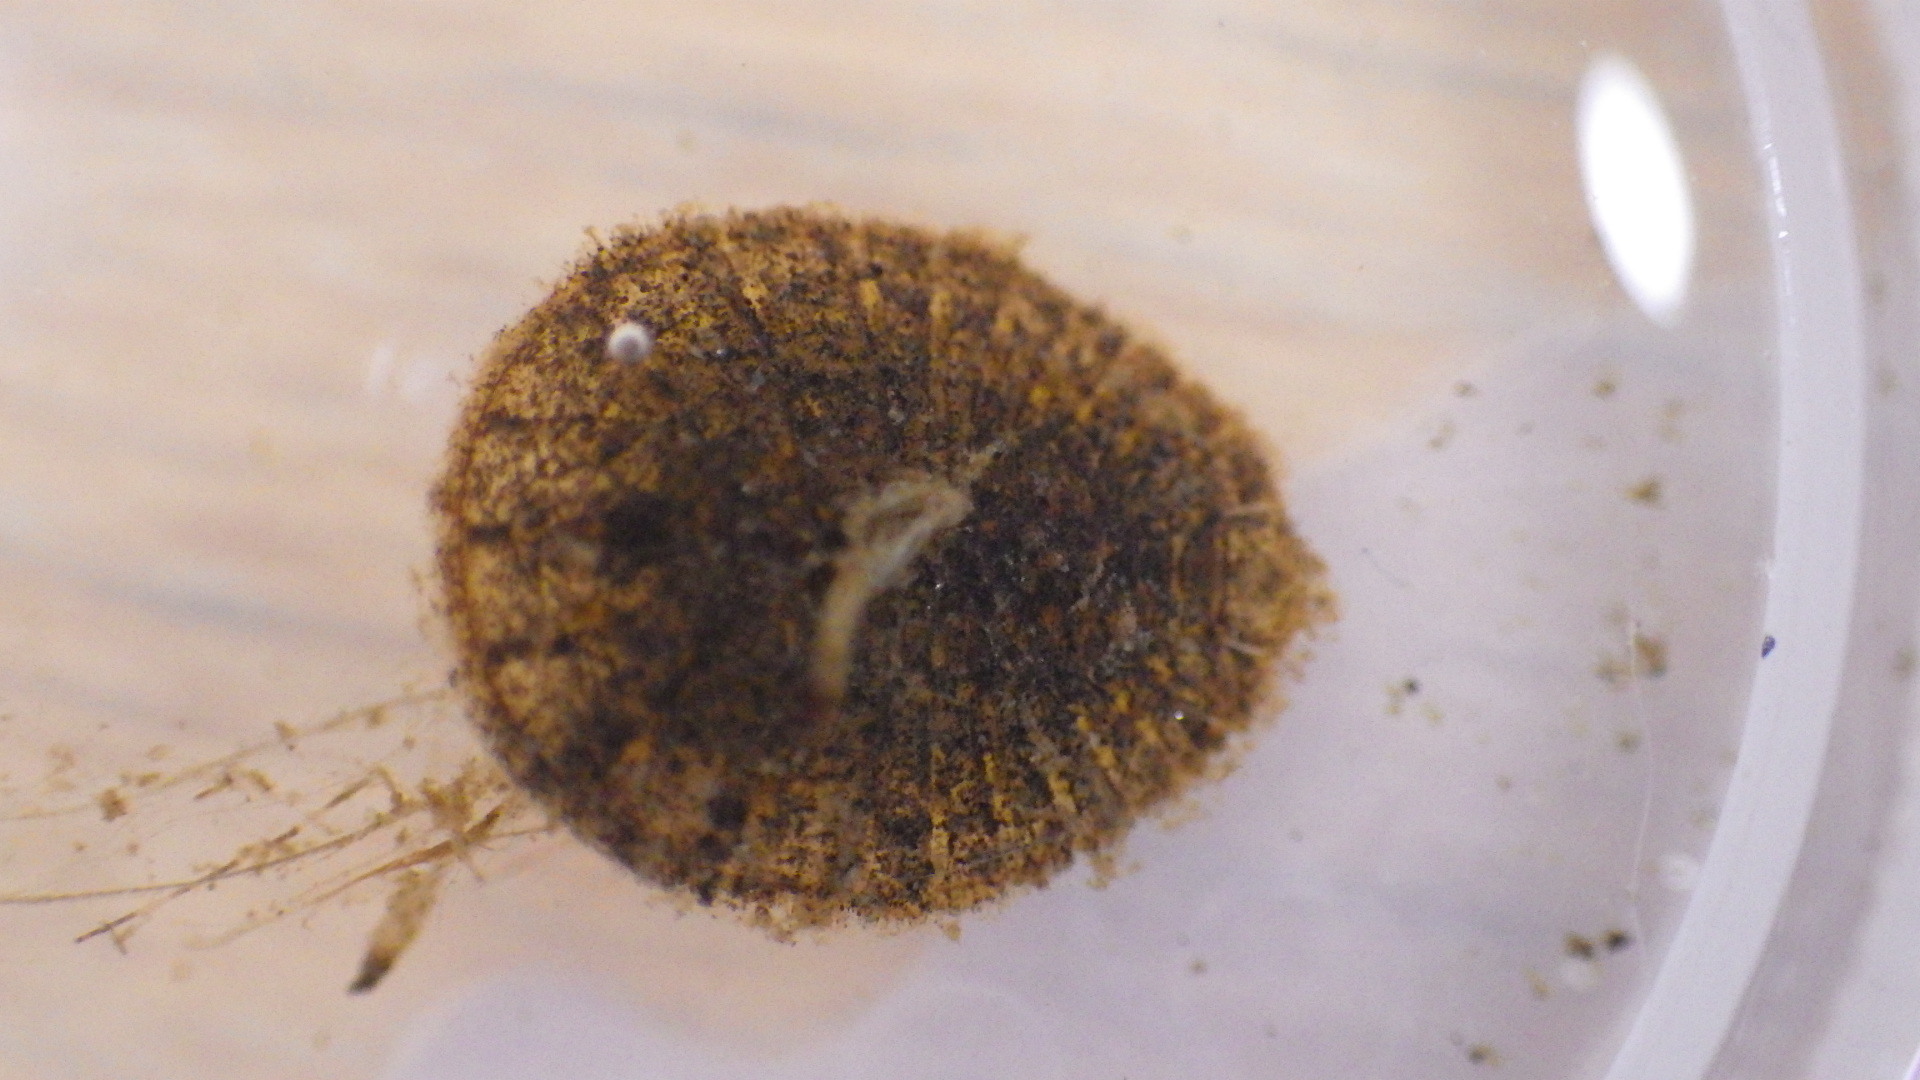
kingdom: Animalia
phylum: Arthropoda
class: Insecta
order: Coleoptera
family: Psephenidae
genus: Psephenus
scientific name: Psephenus herricki
